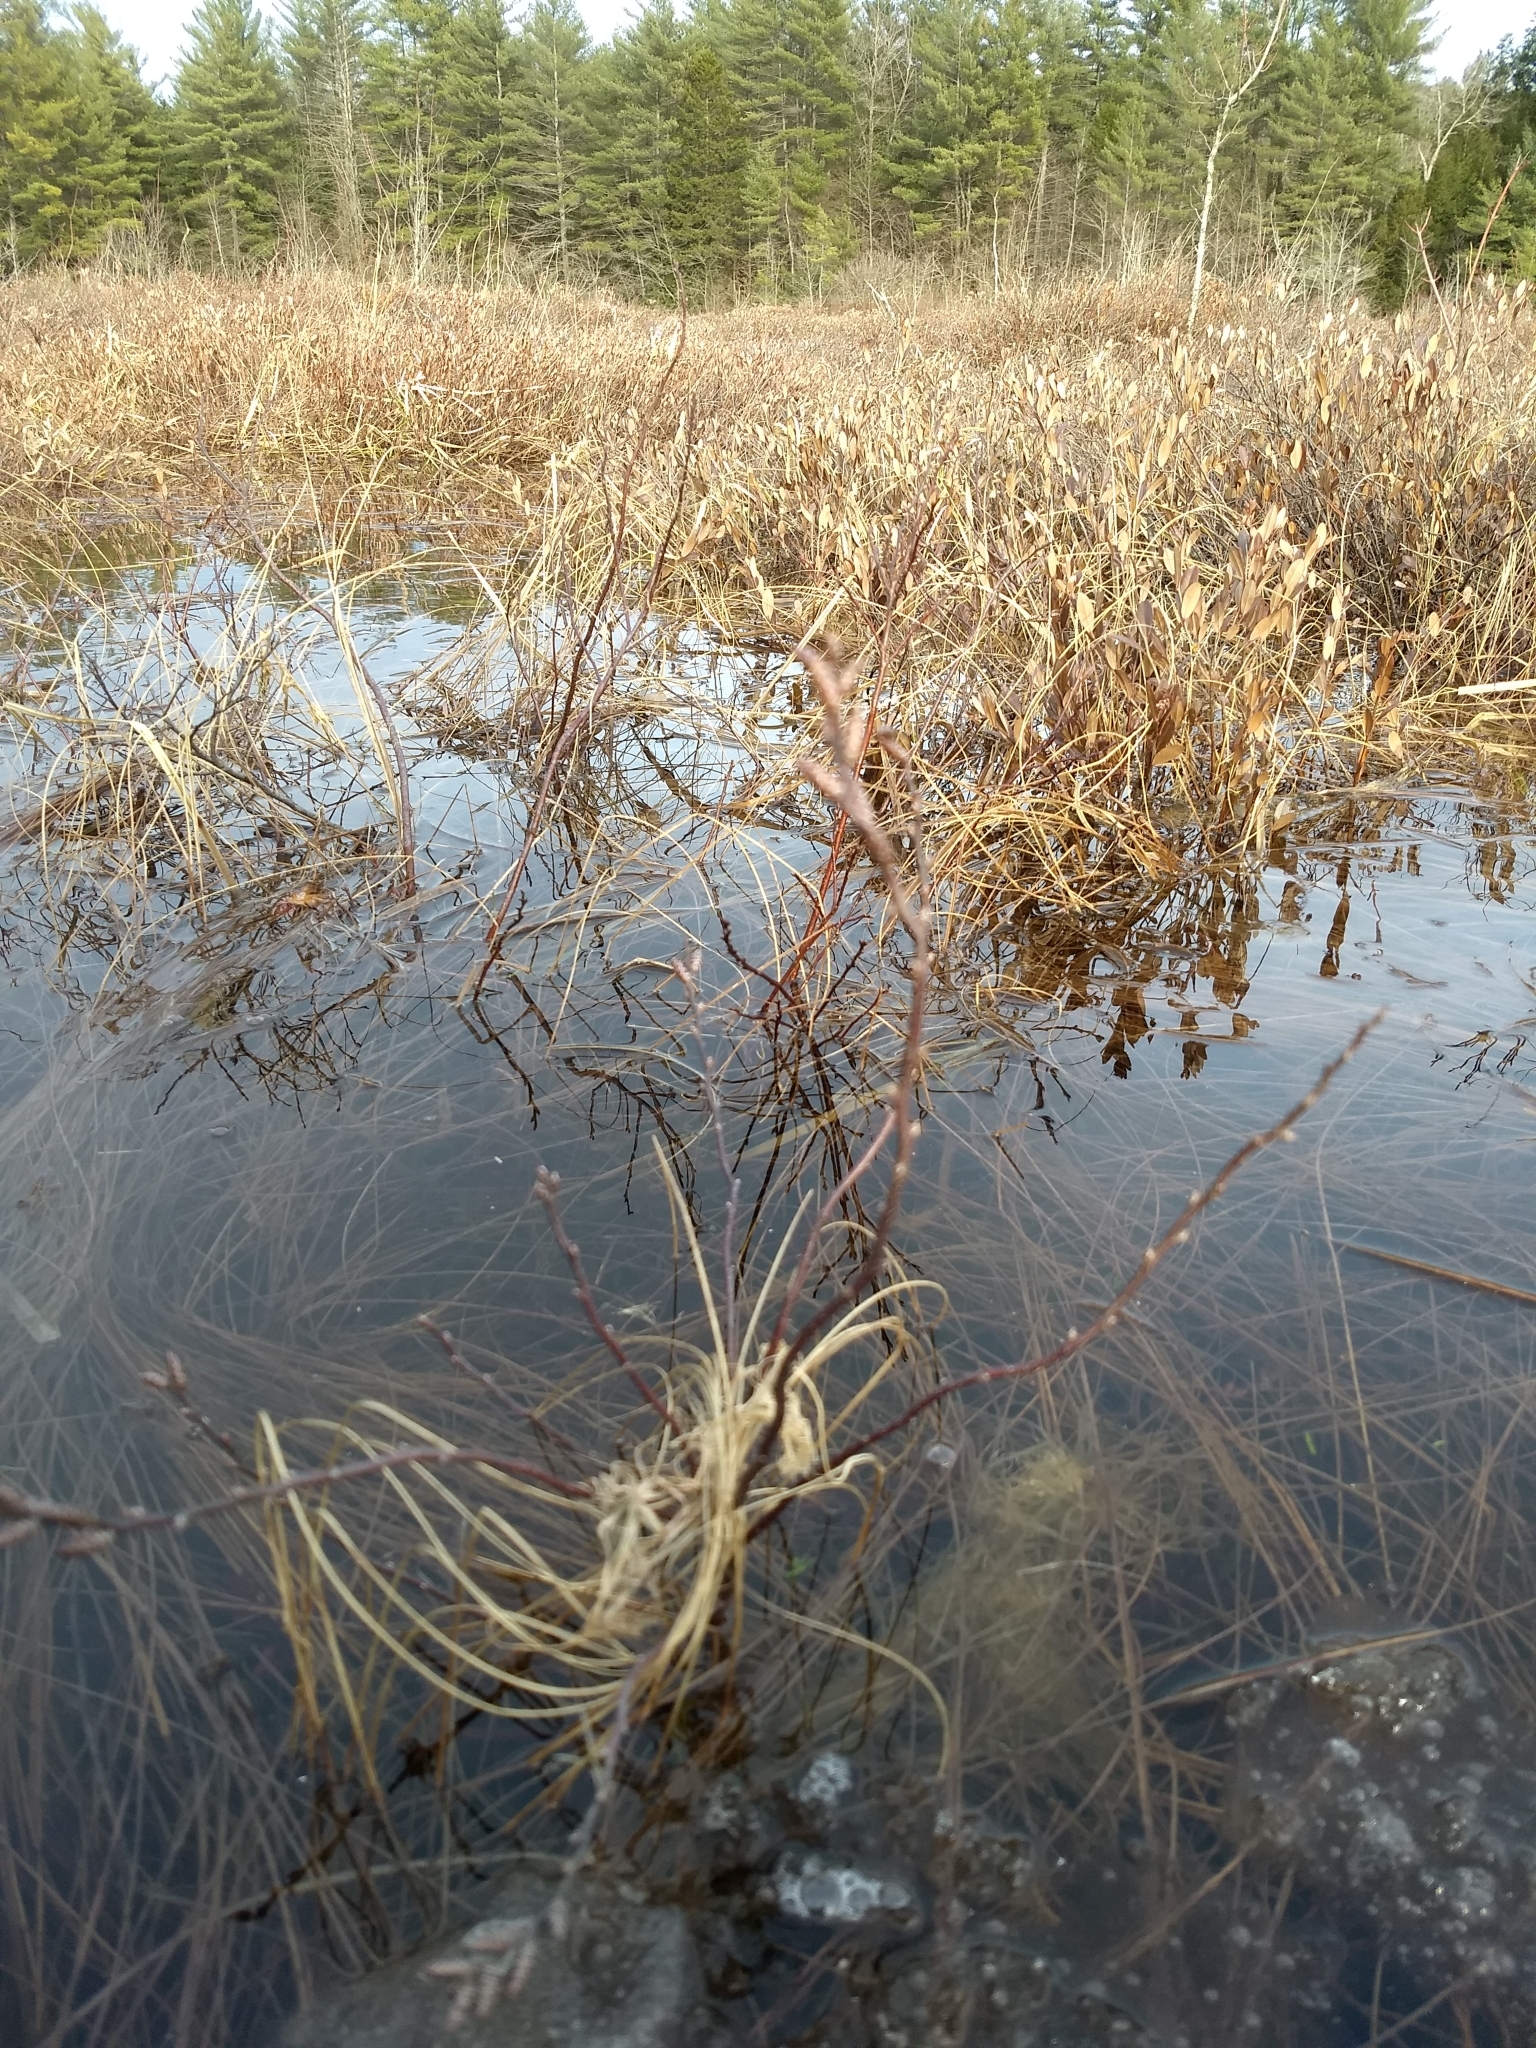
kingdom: Plantae
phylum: Tracheophyta
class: Magnoliopsida
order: Fagales
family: Myricaceae
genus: Myrica
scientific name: Myrica gale
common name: Sweet gale
